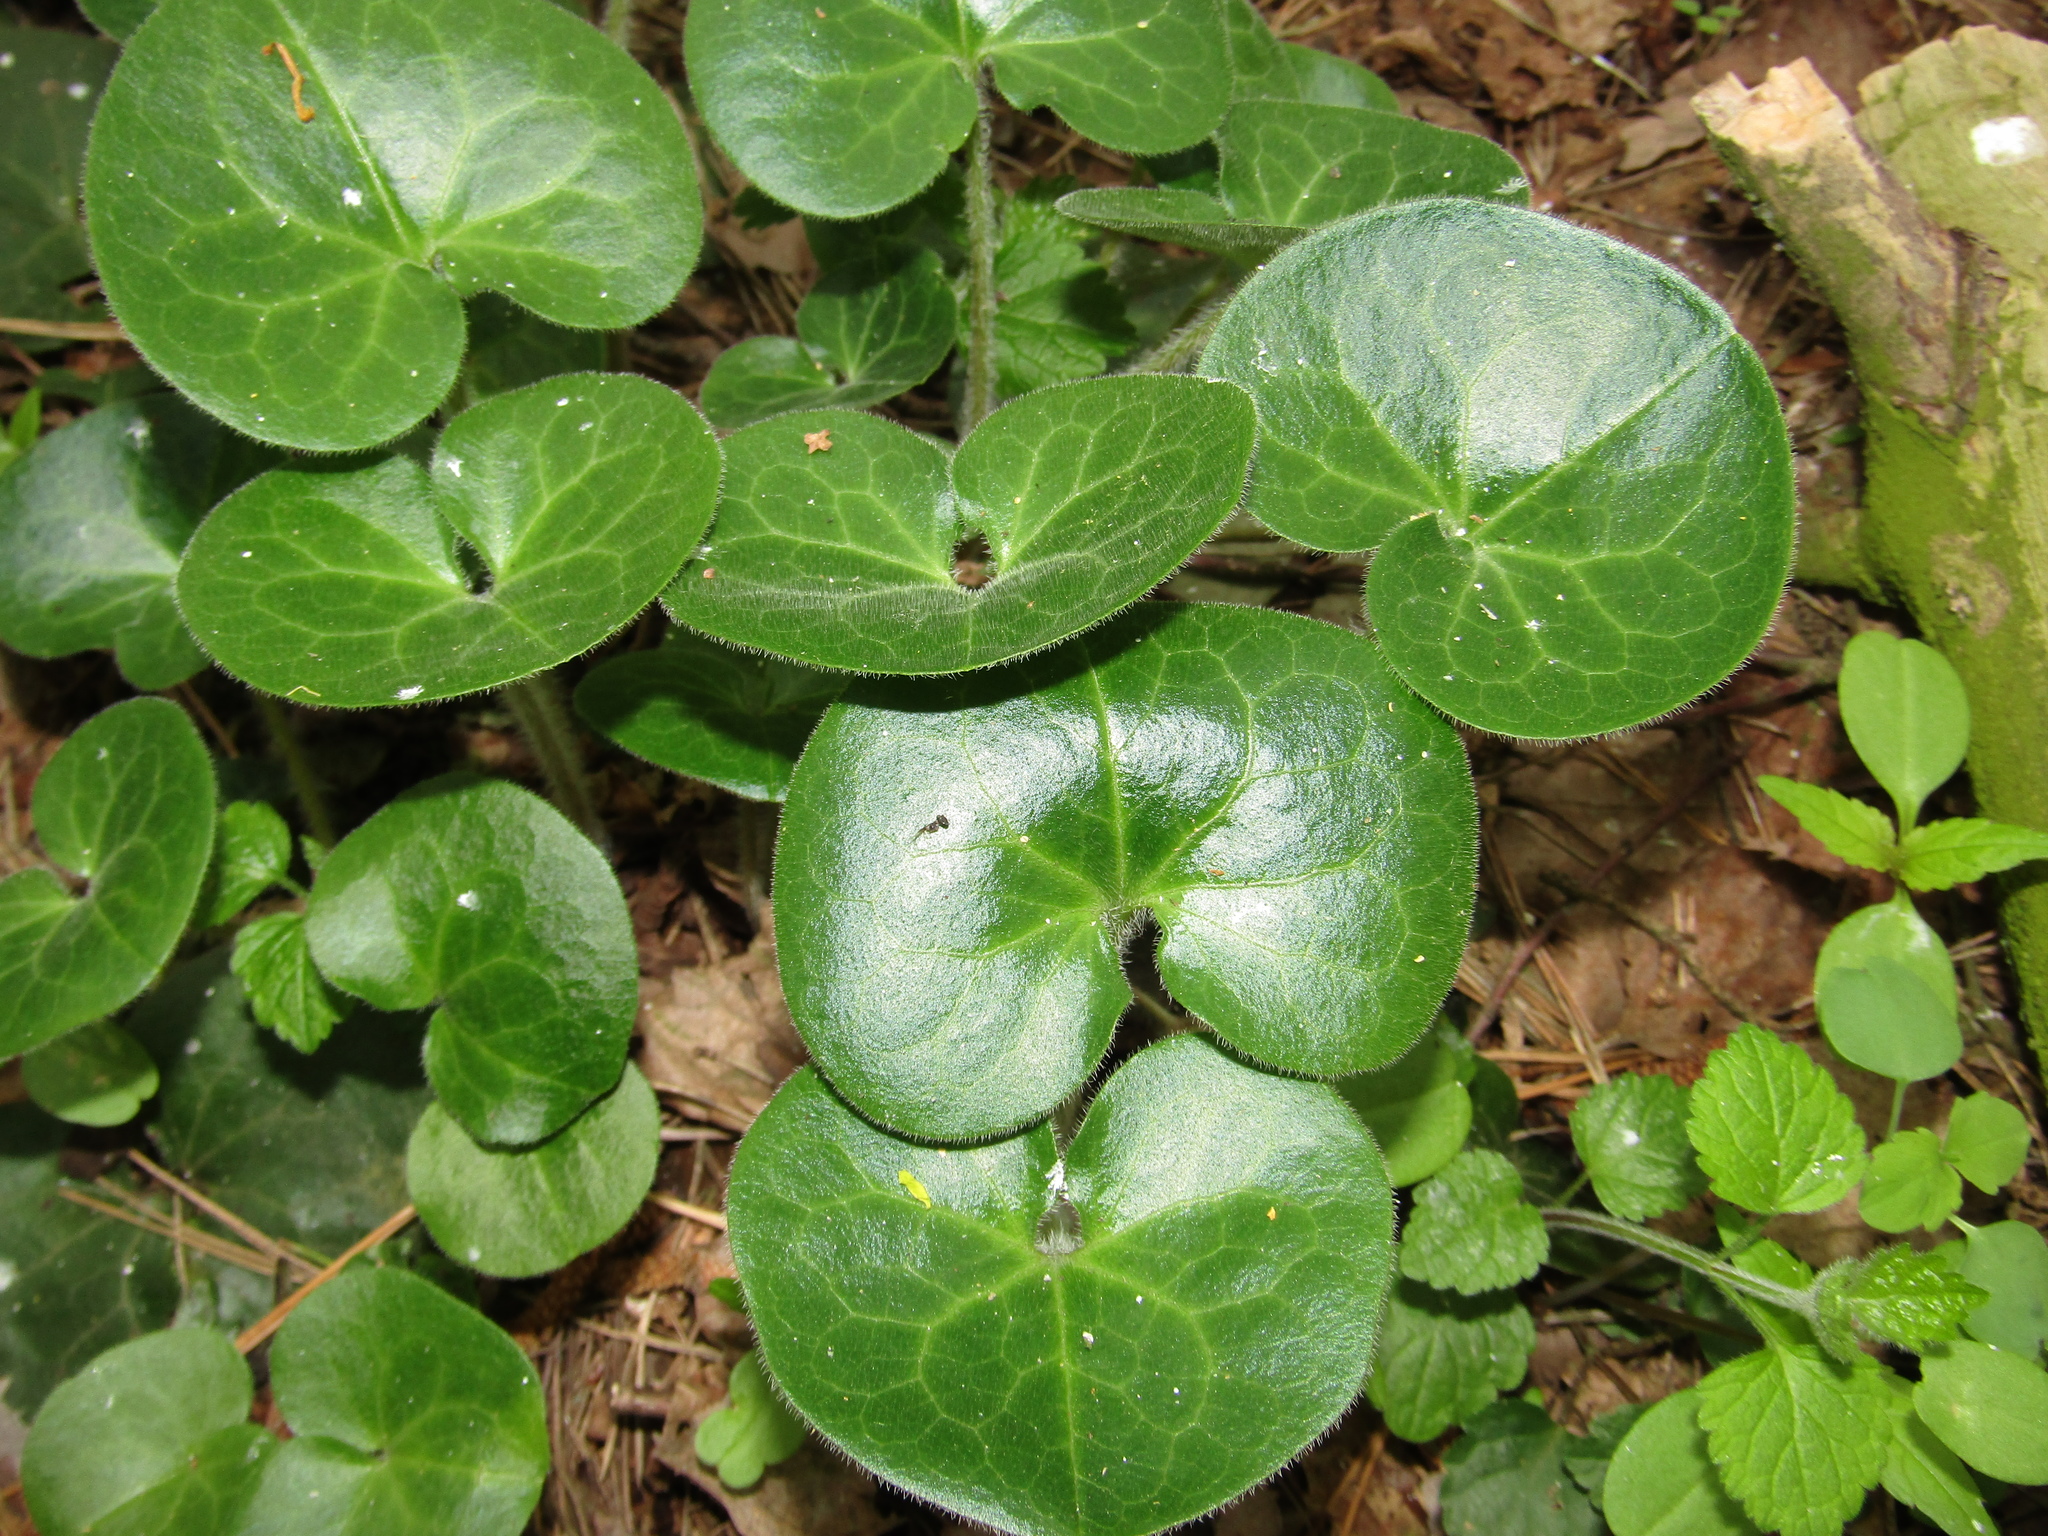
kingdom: Plantae
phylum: Tracheophyta
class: Magnoliopsida
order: Piperales
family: Aristolochiaceae
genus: Asarum
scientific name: Asarum europaeum
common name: Asarabacca
